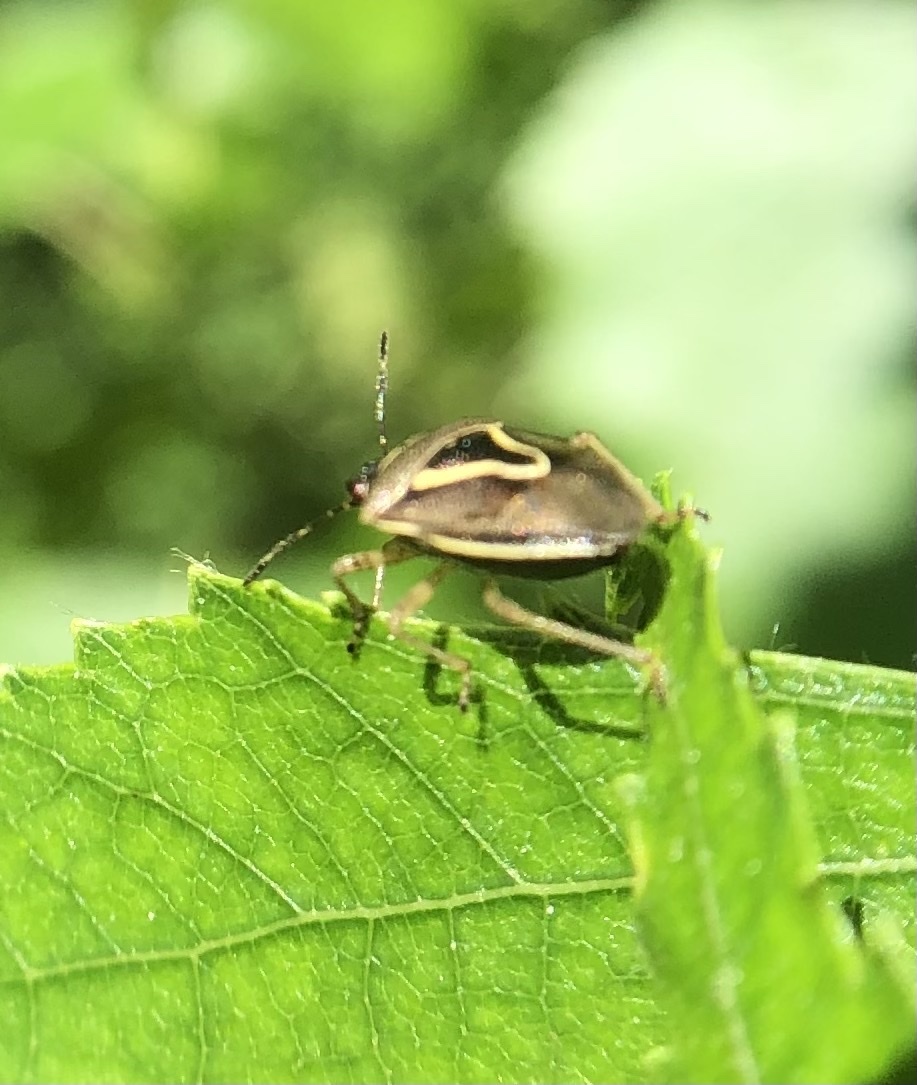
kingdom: Animalia
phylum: Arthropoda
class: Insecta
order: Hemiptera
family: Pentatomidae
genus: Mormidea
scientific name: Mormidea lugens
